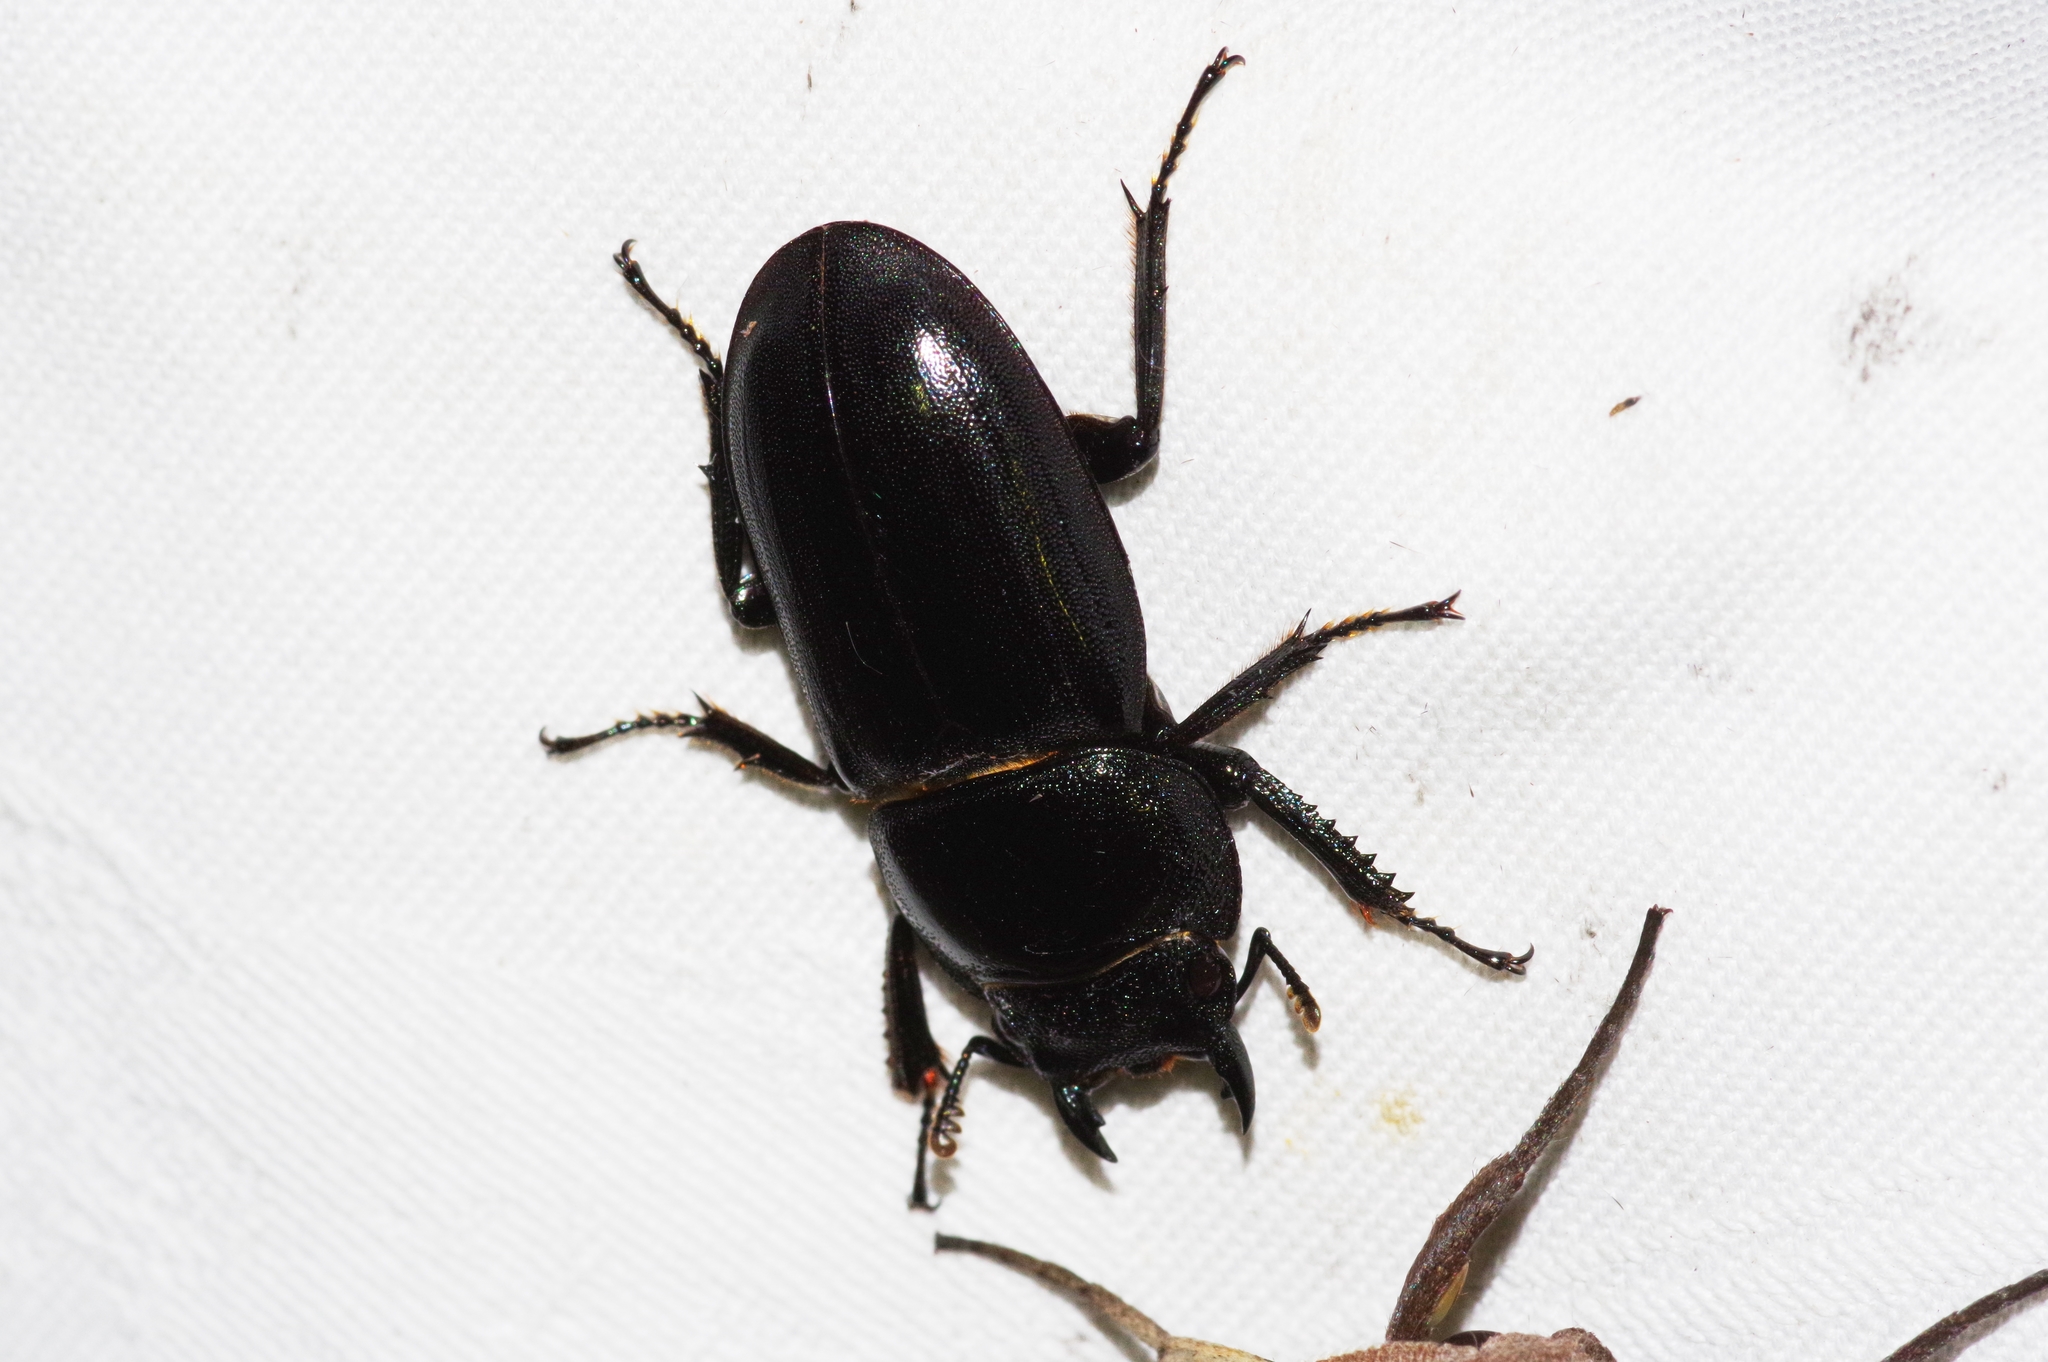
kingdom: Animalia
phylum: Arthropoda
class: Insecta
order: Coleoptera
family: Lucanidae
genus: Serrognathus
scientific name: Serrognathus titanus
